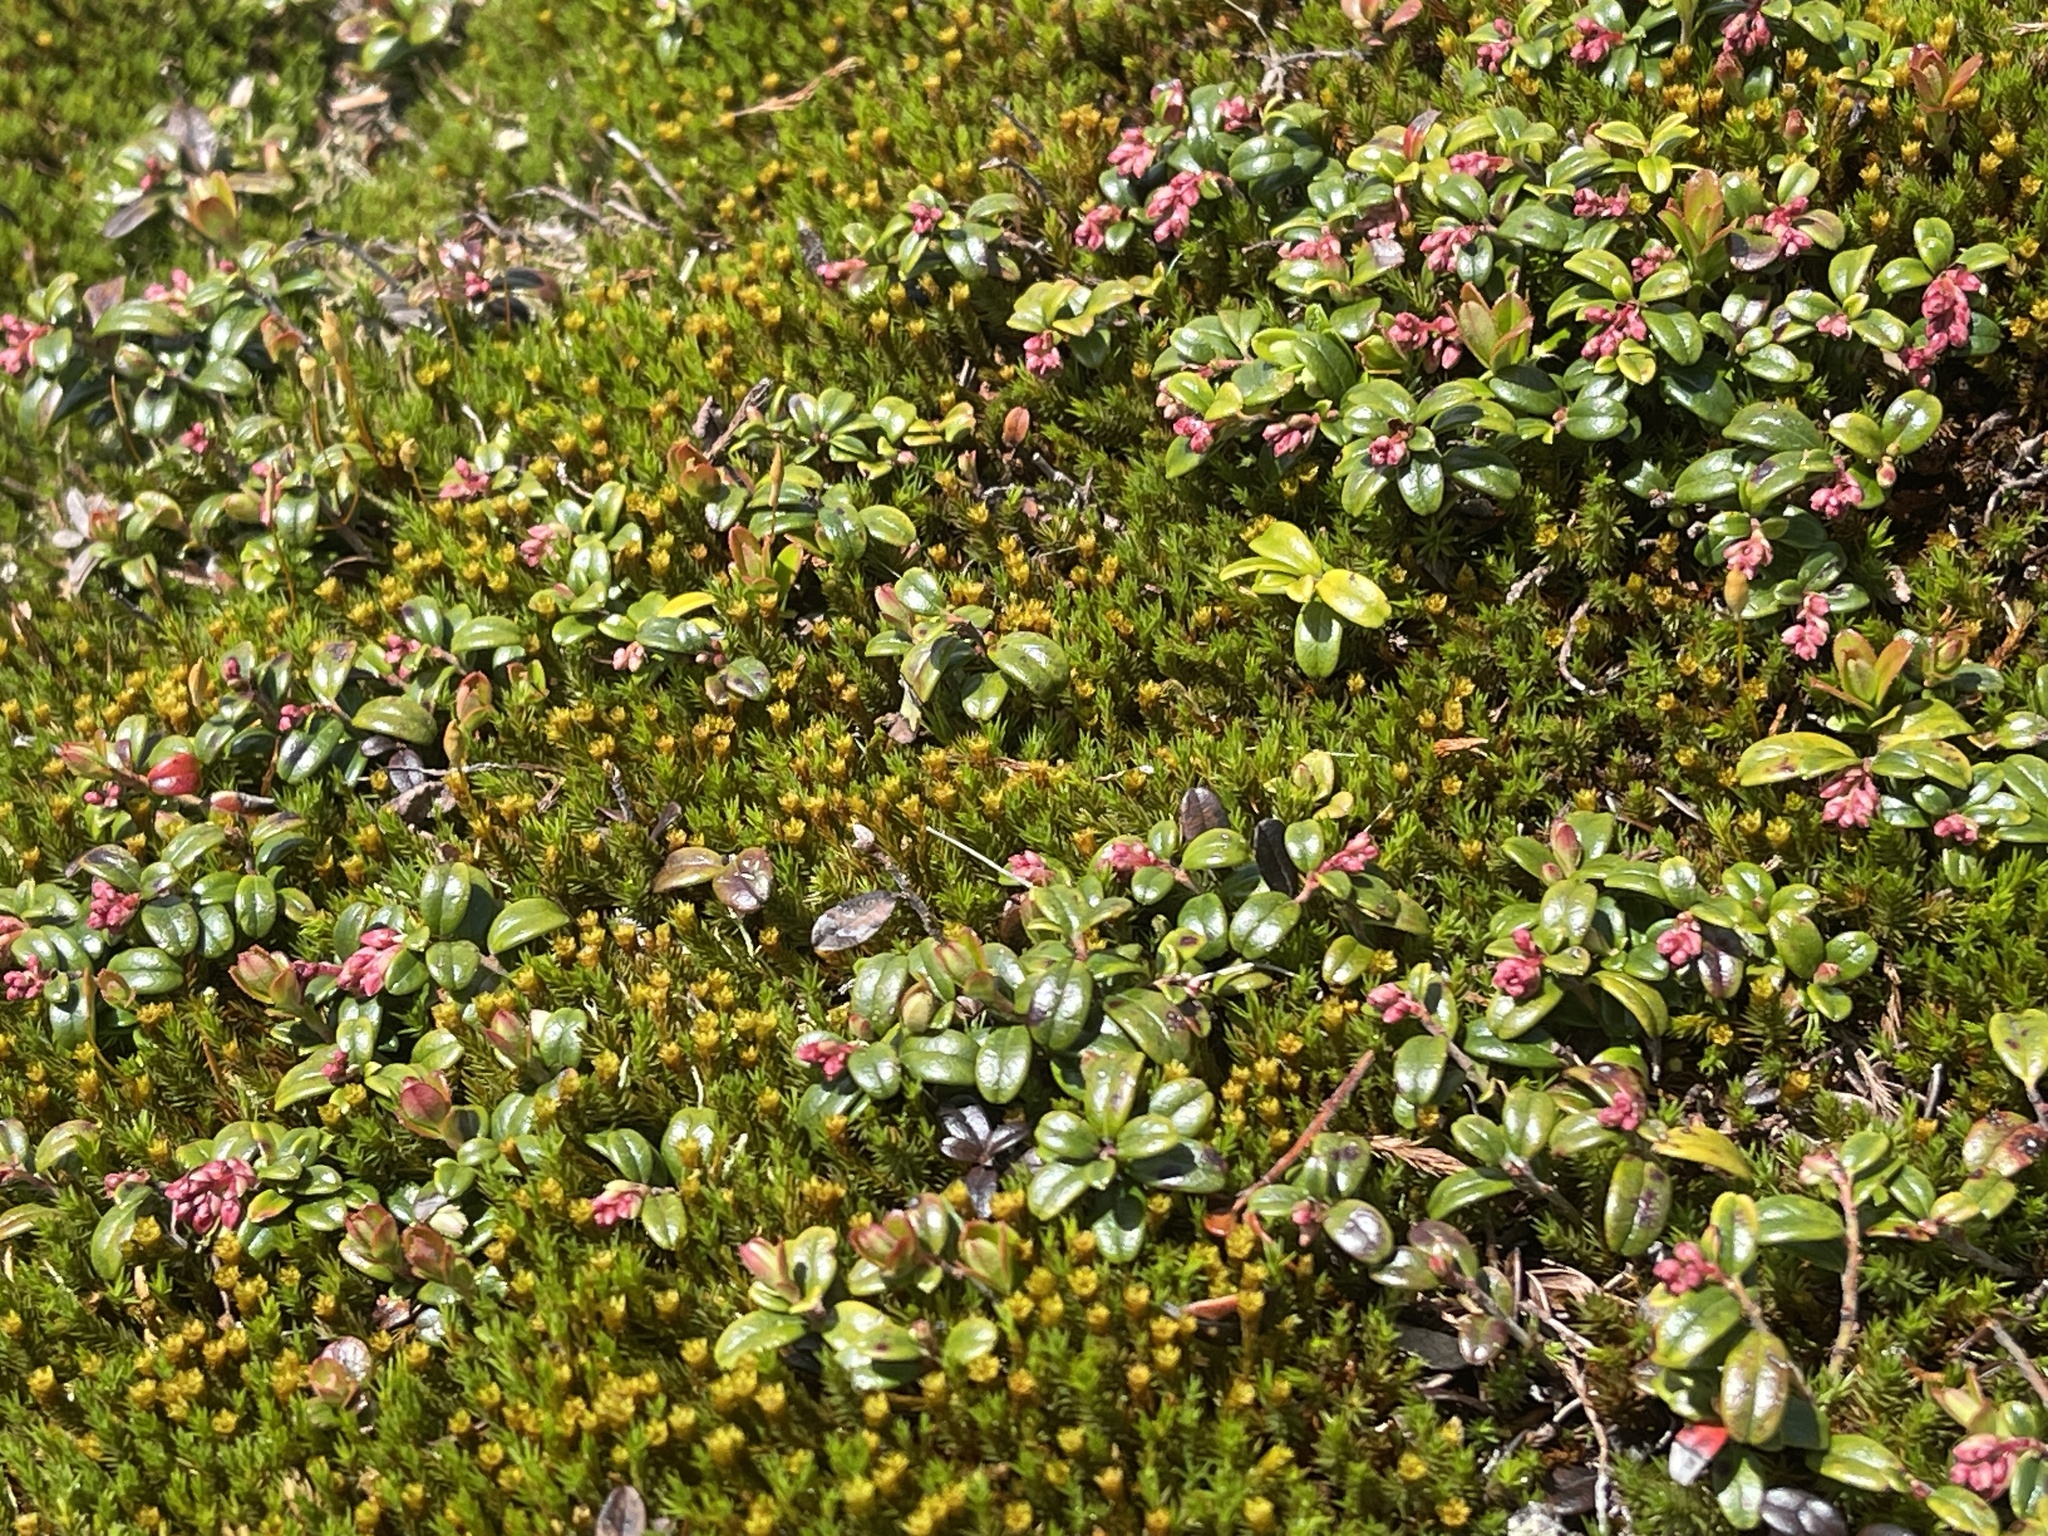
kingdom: Plantae
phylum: Tracheophyta
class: Magnoliopsida
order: Ericales
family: Ericaceae
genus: Vaccinium
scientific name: Vaccinium vitis-idaea
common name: Cowberry
